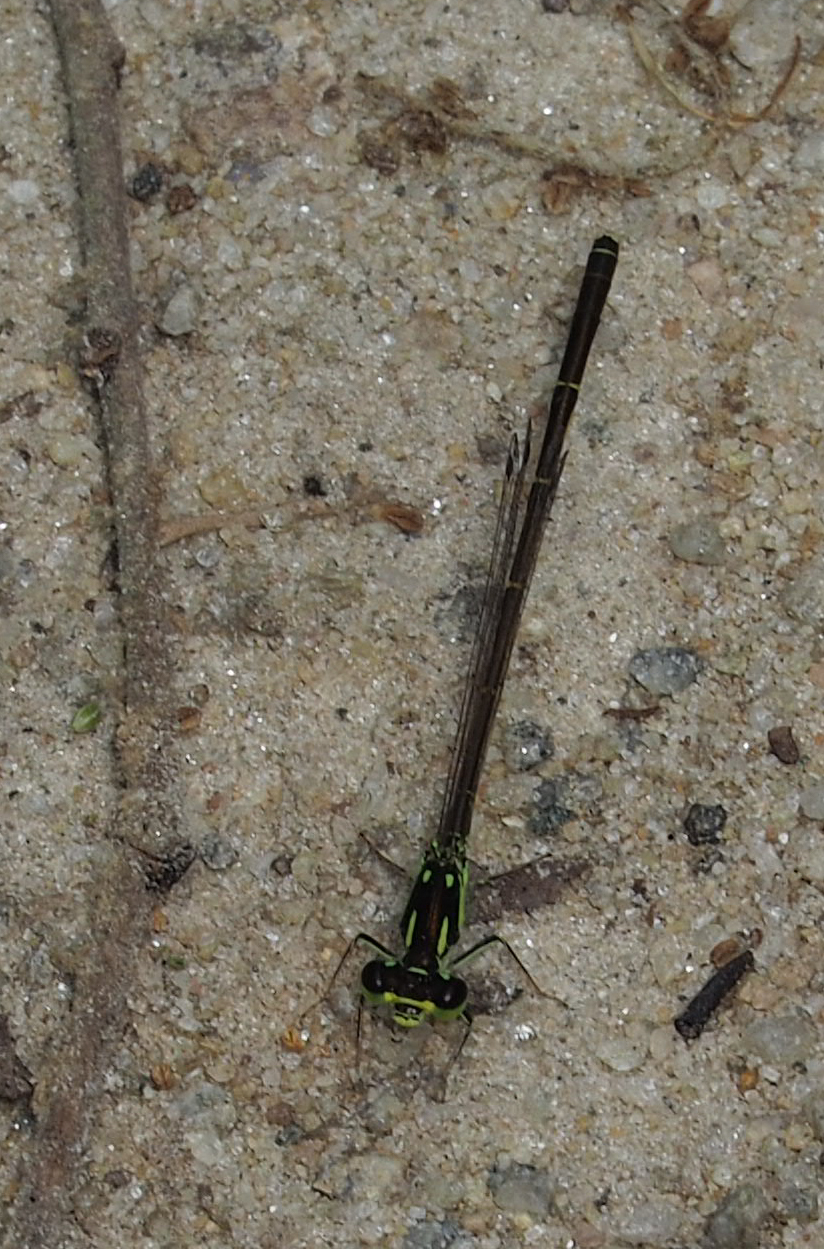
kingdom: Animalia
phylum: Arthropoda
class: Insecta
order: Odonata
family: Coenagrionidae
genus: Ischnura
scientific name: Ischnura posita
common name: Fragile forktail
